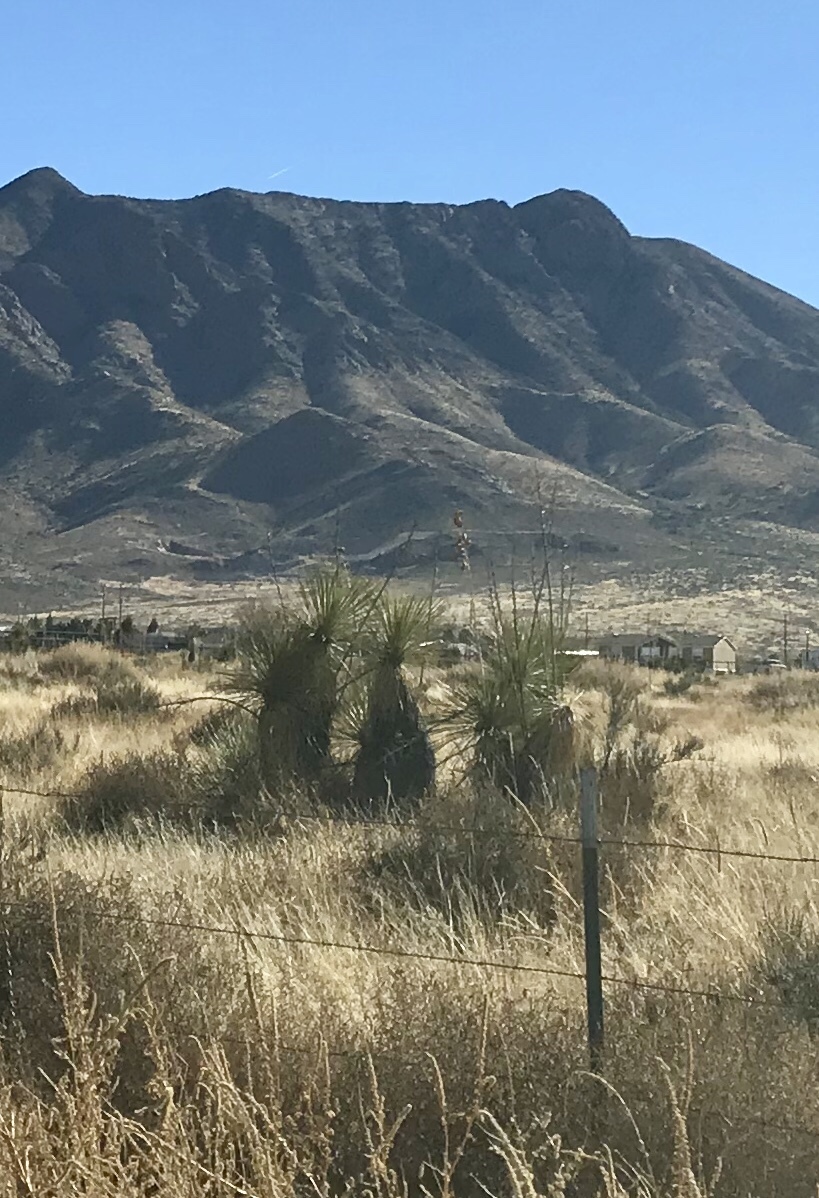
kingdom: Plantae
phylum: Tracheophyta
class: Liliopsida
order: Asparagales
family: Asparagaceae
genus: Yucca
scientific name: Yucca elata
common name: Palmella
